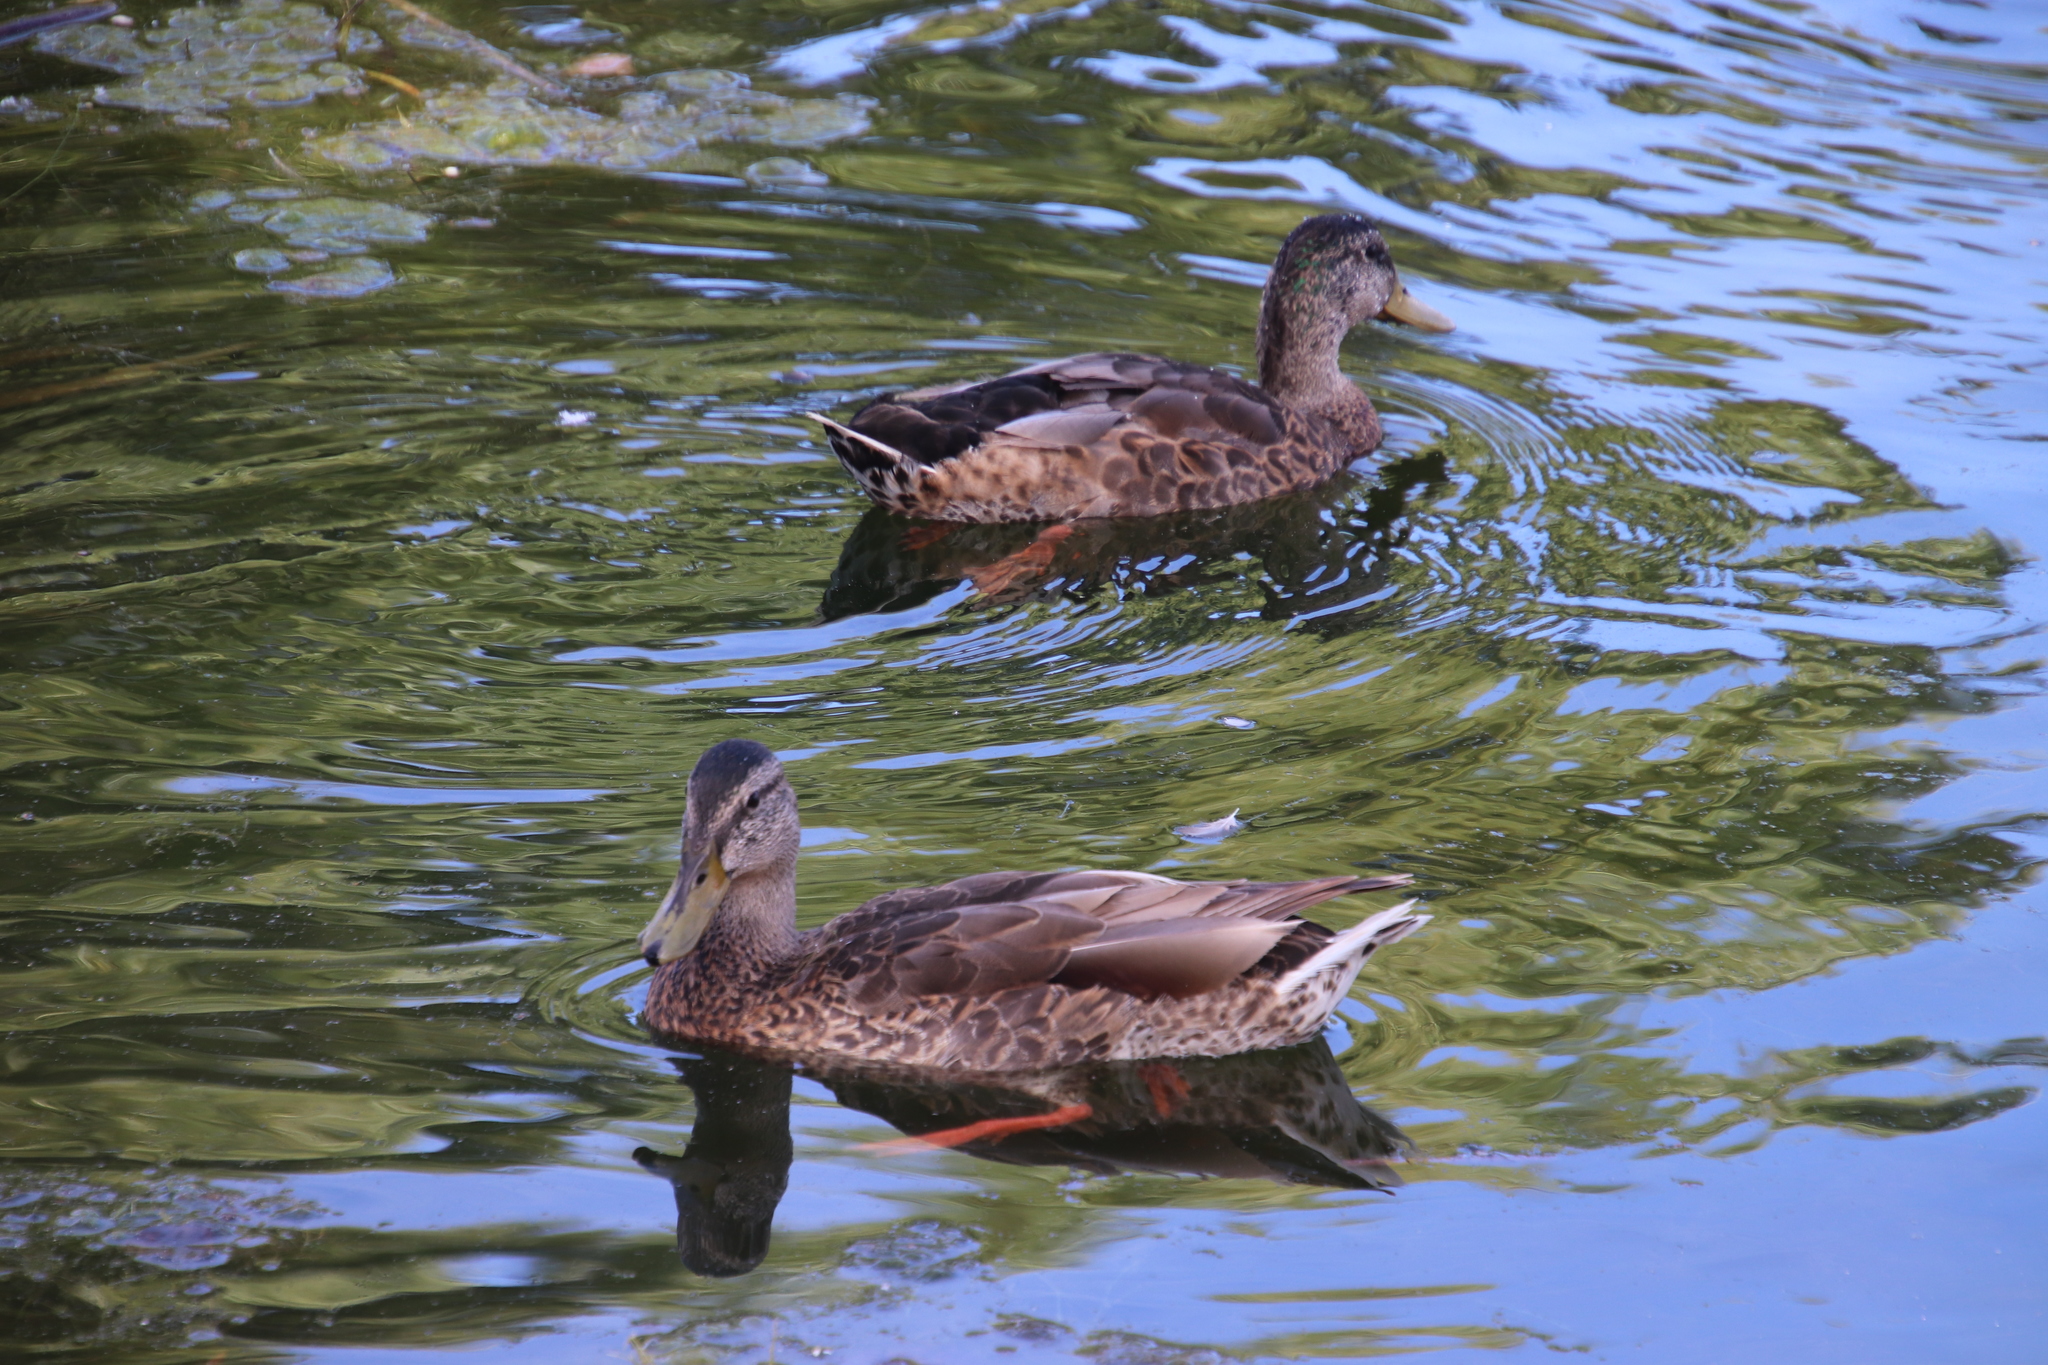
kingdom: Animalia
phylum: Chordata
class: Aves
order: Anseriformes
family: Anatidae
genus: Anas
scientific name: Anas platyrhynchos
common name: Mallard
